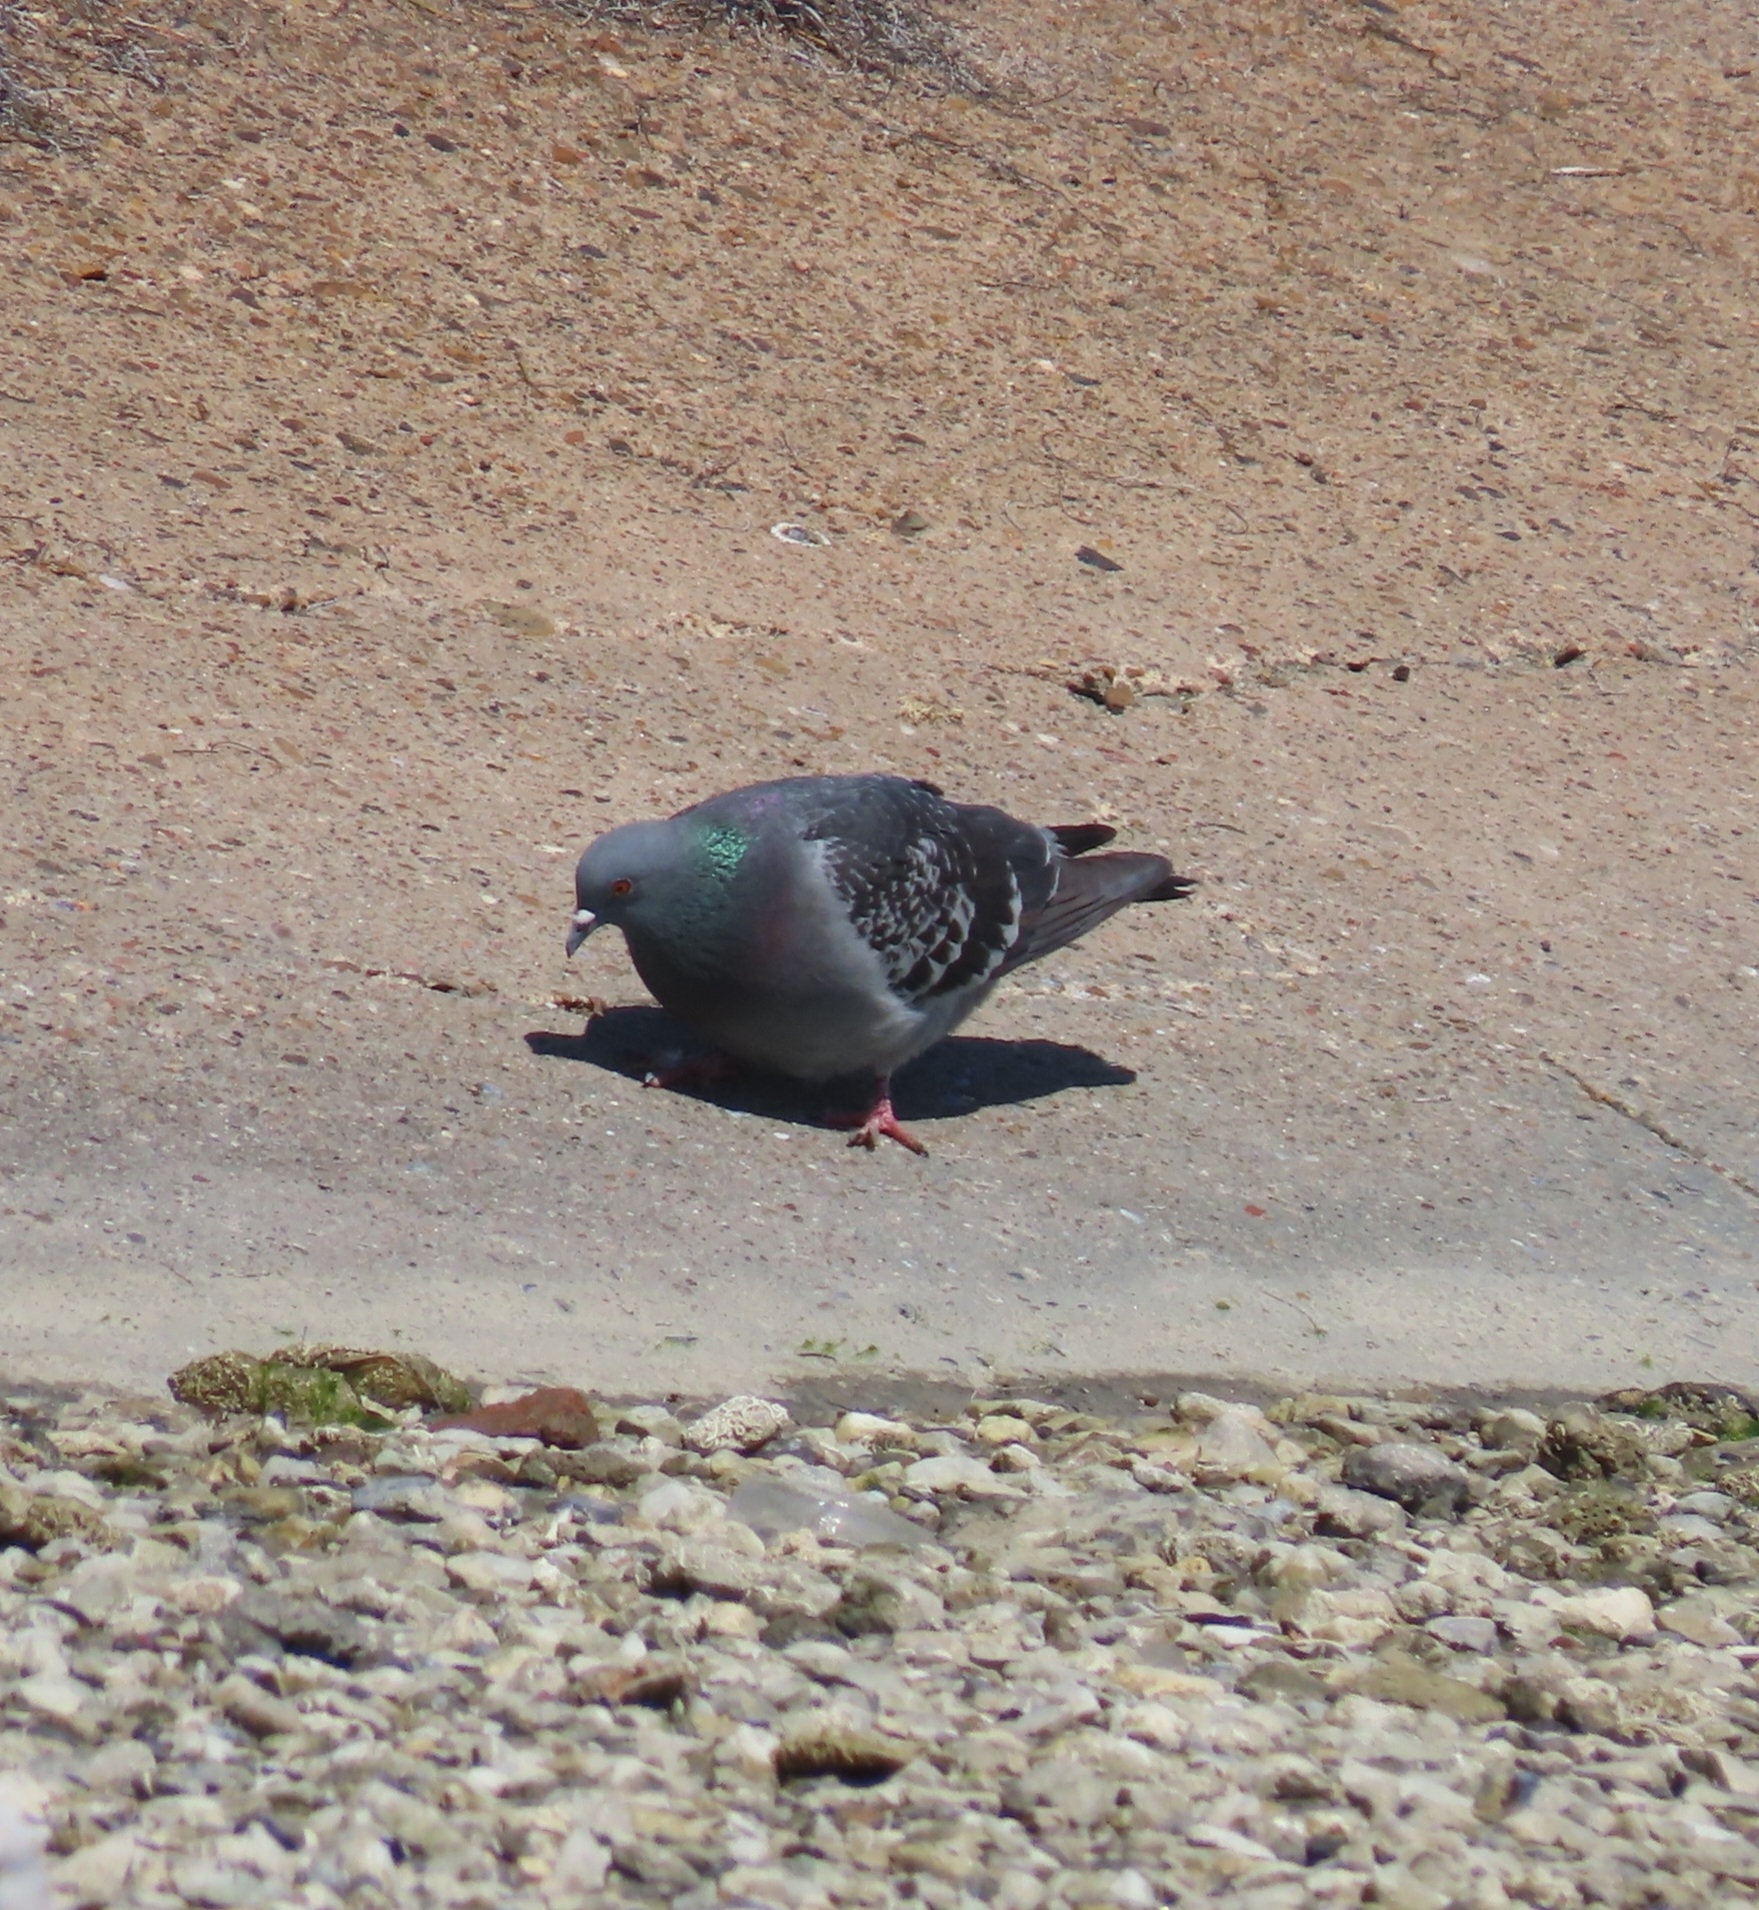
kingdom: Animalia
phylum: Chordata
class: Aves
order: Columbiformes
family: Columbidae
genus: Columba
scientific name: Columba livia
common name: Rock pigeon
